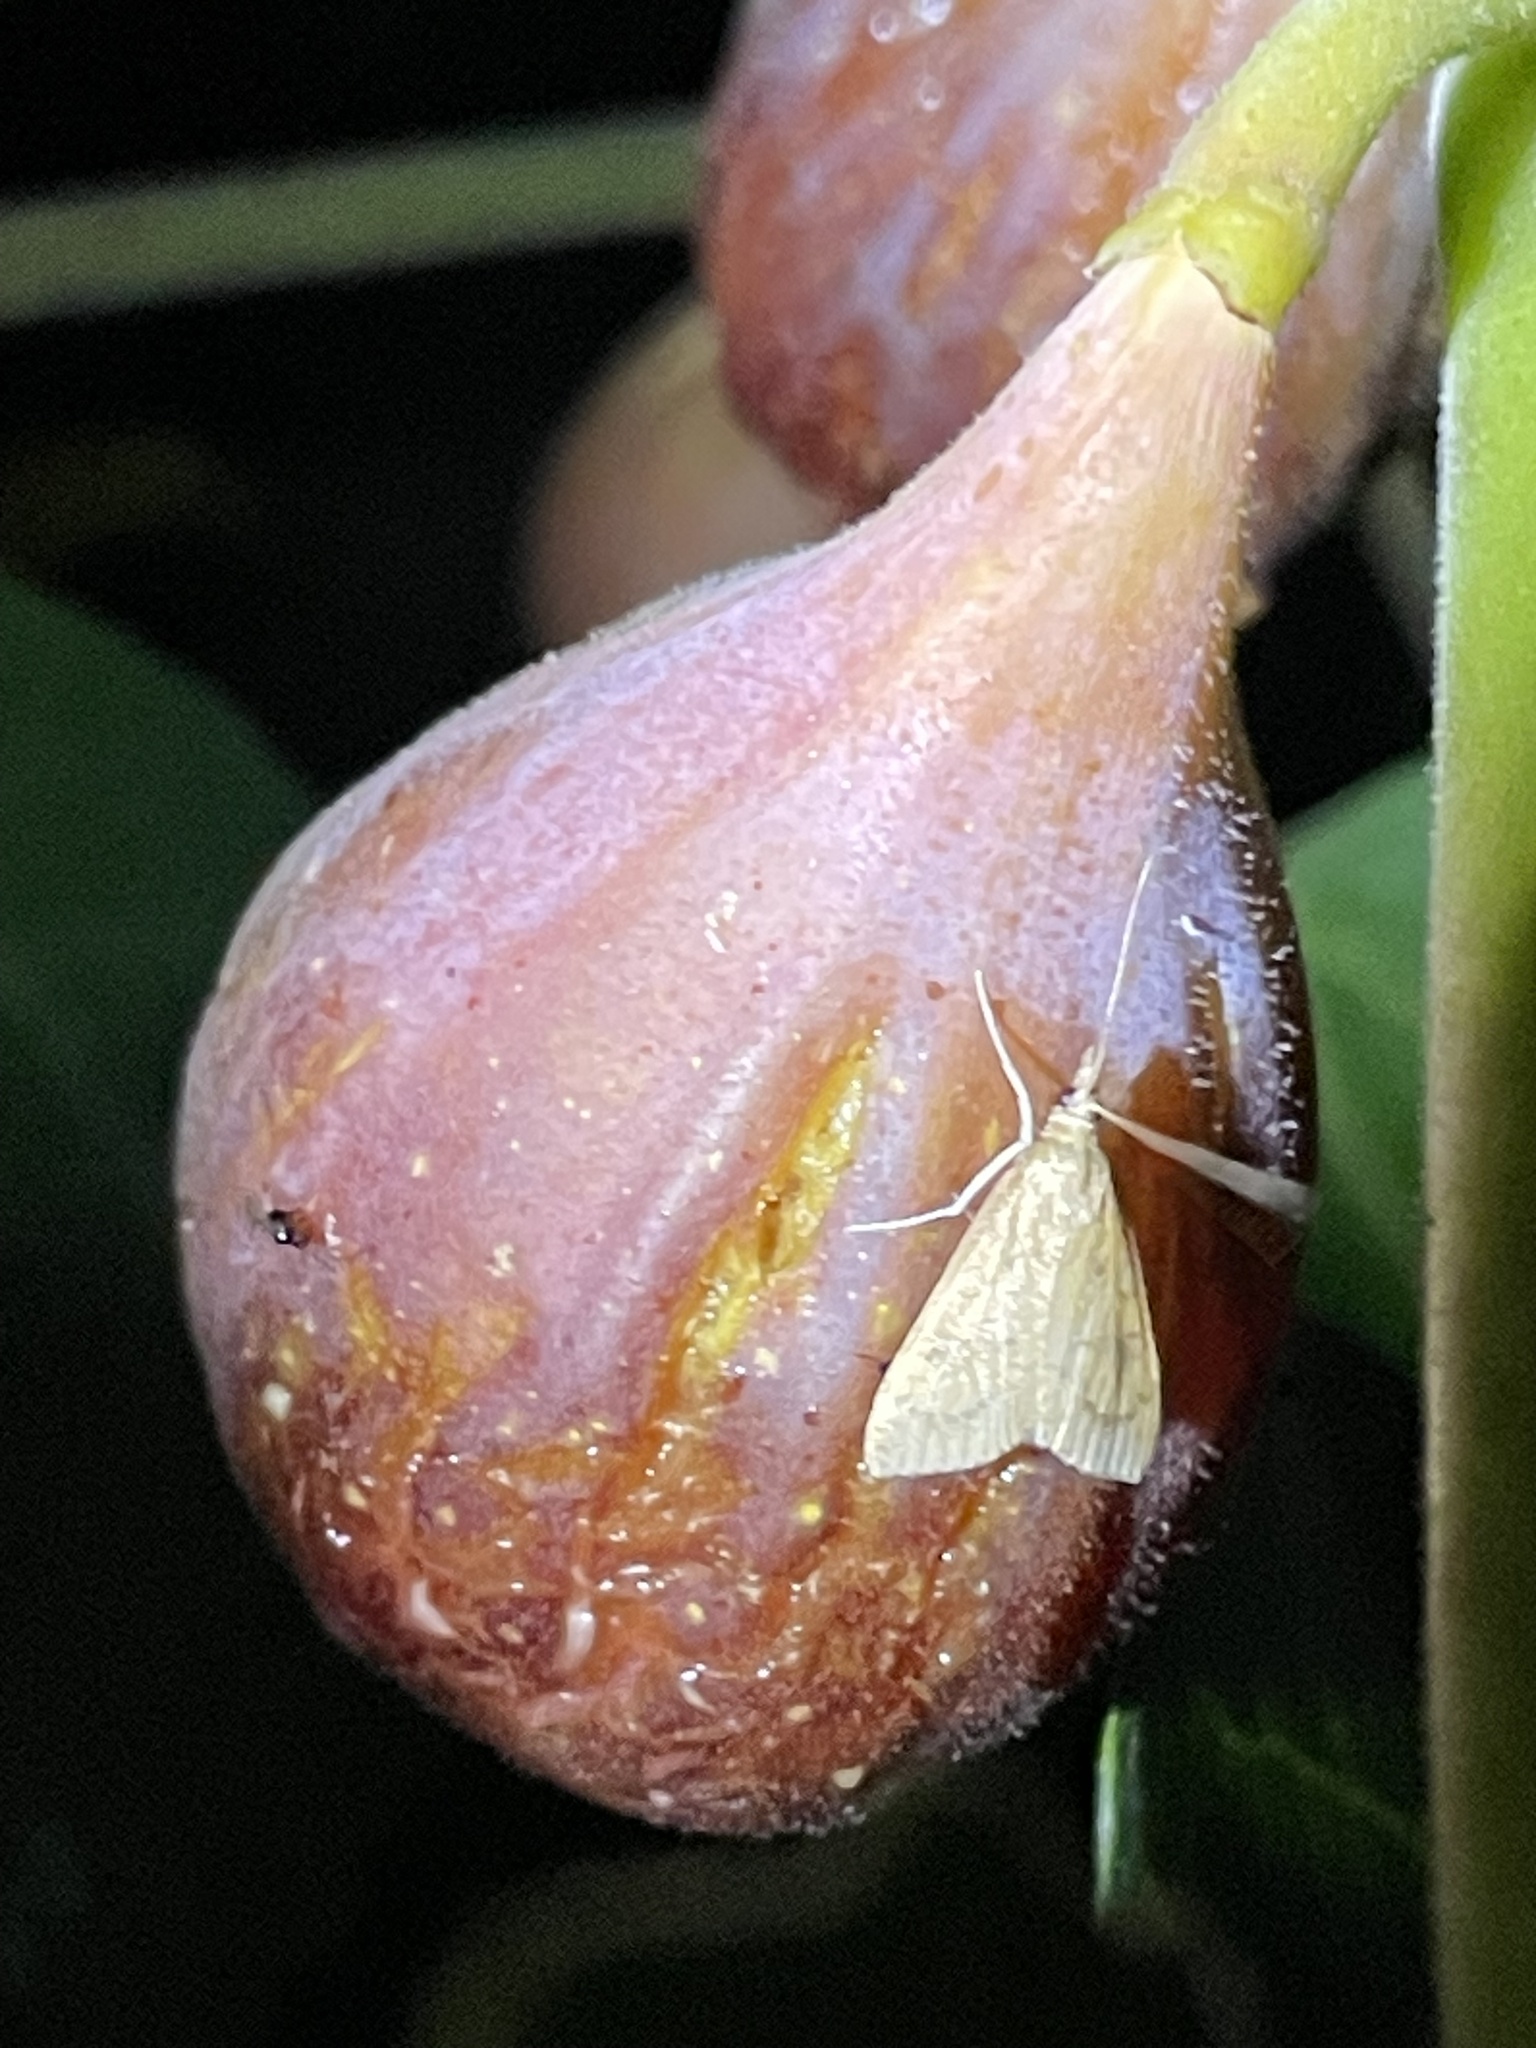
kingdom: Animalia
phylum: Arthropoda
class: Insecta
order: Lepidoptera
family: Crambidae
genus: Udea
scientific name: Udea rubigalis
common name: Celery leaftier moth
